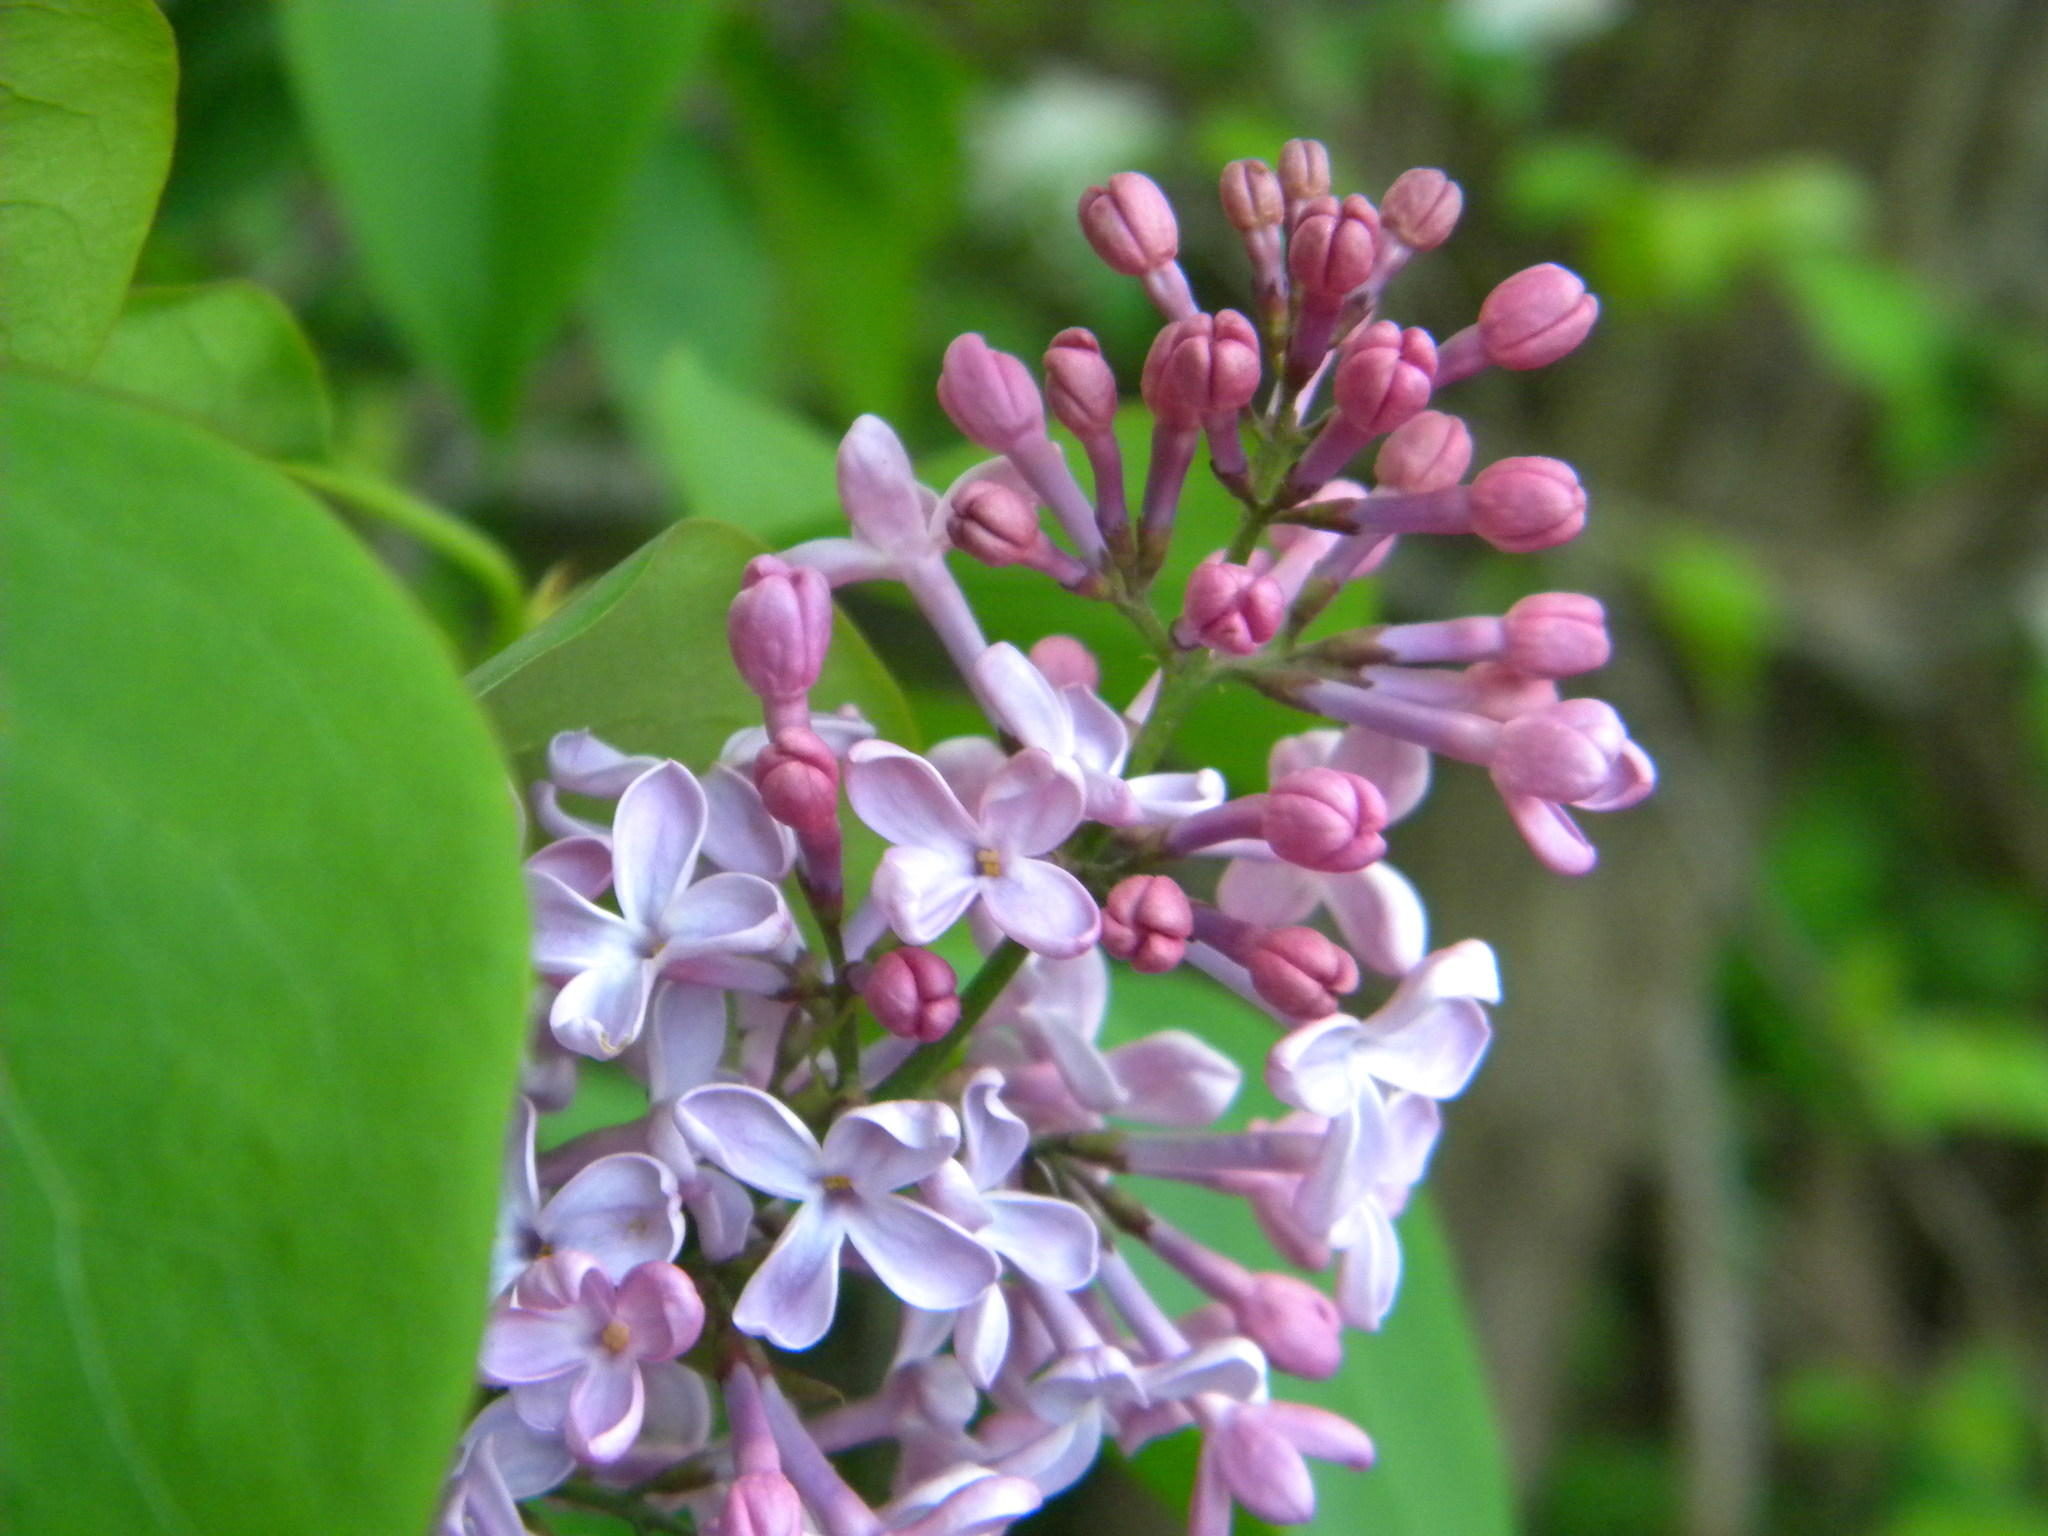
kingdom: Plantae
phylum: Tracheophyta
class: Magnoliopsida
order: Lamiales
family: Oleaceae
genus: Syringa
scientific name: Syringa vulgaris
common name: Common lilac
